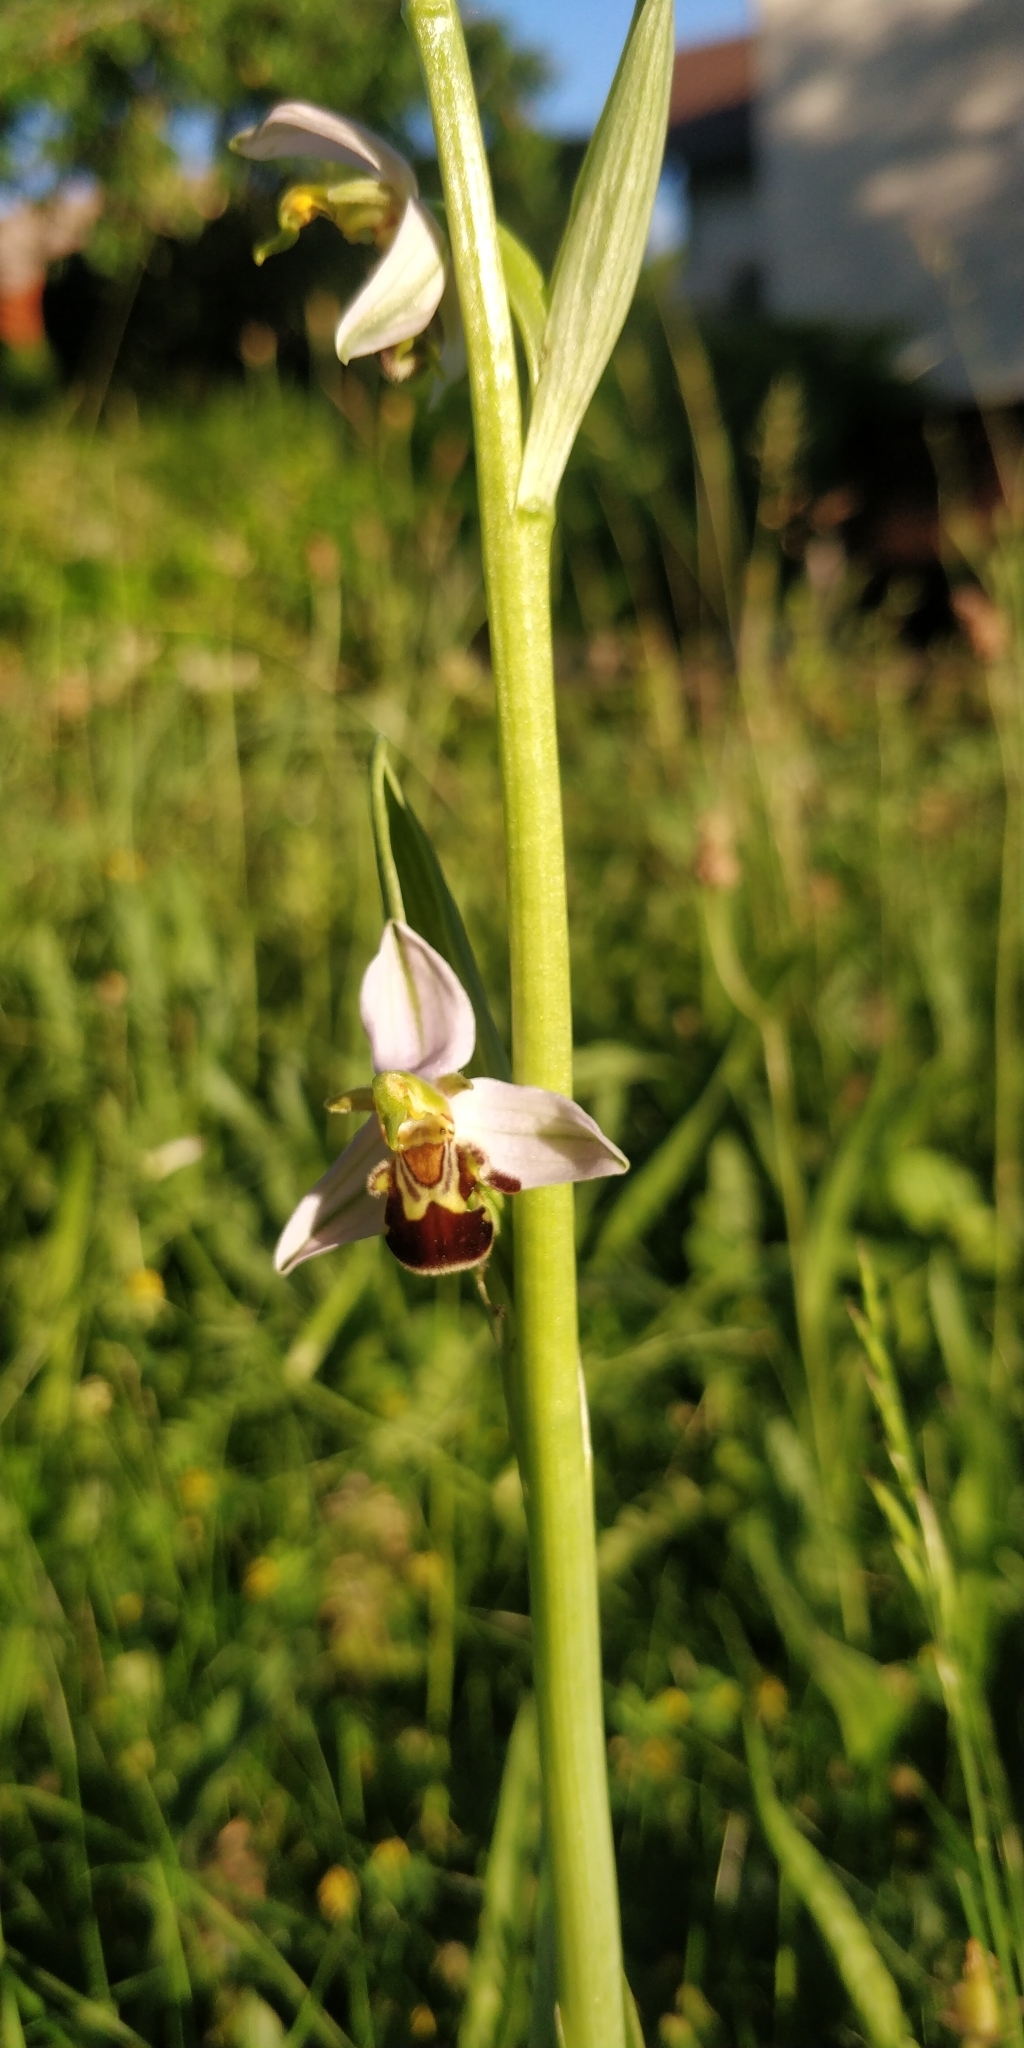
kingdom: Plantae
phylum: Tracheophyta
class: Liliopsida
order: Asparagales
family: Orchidaceae
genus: Ophrys
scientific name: Ophrys apifera
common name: Bee orchid
